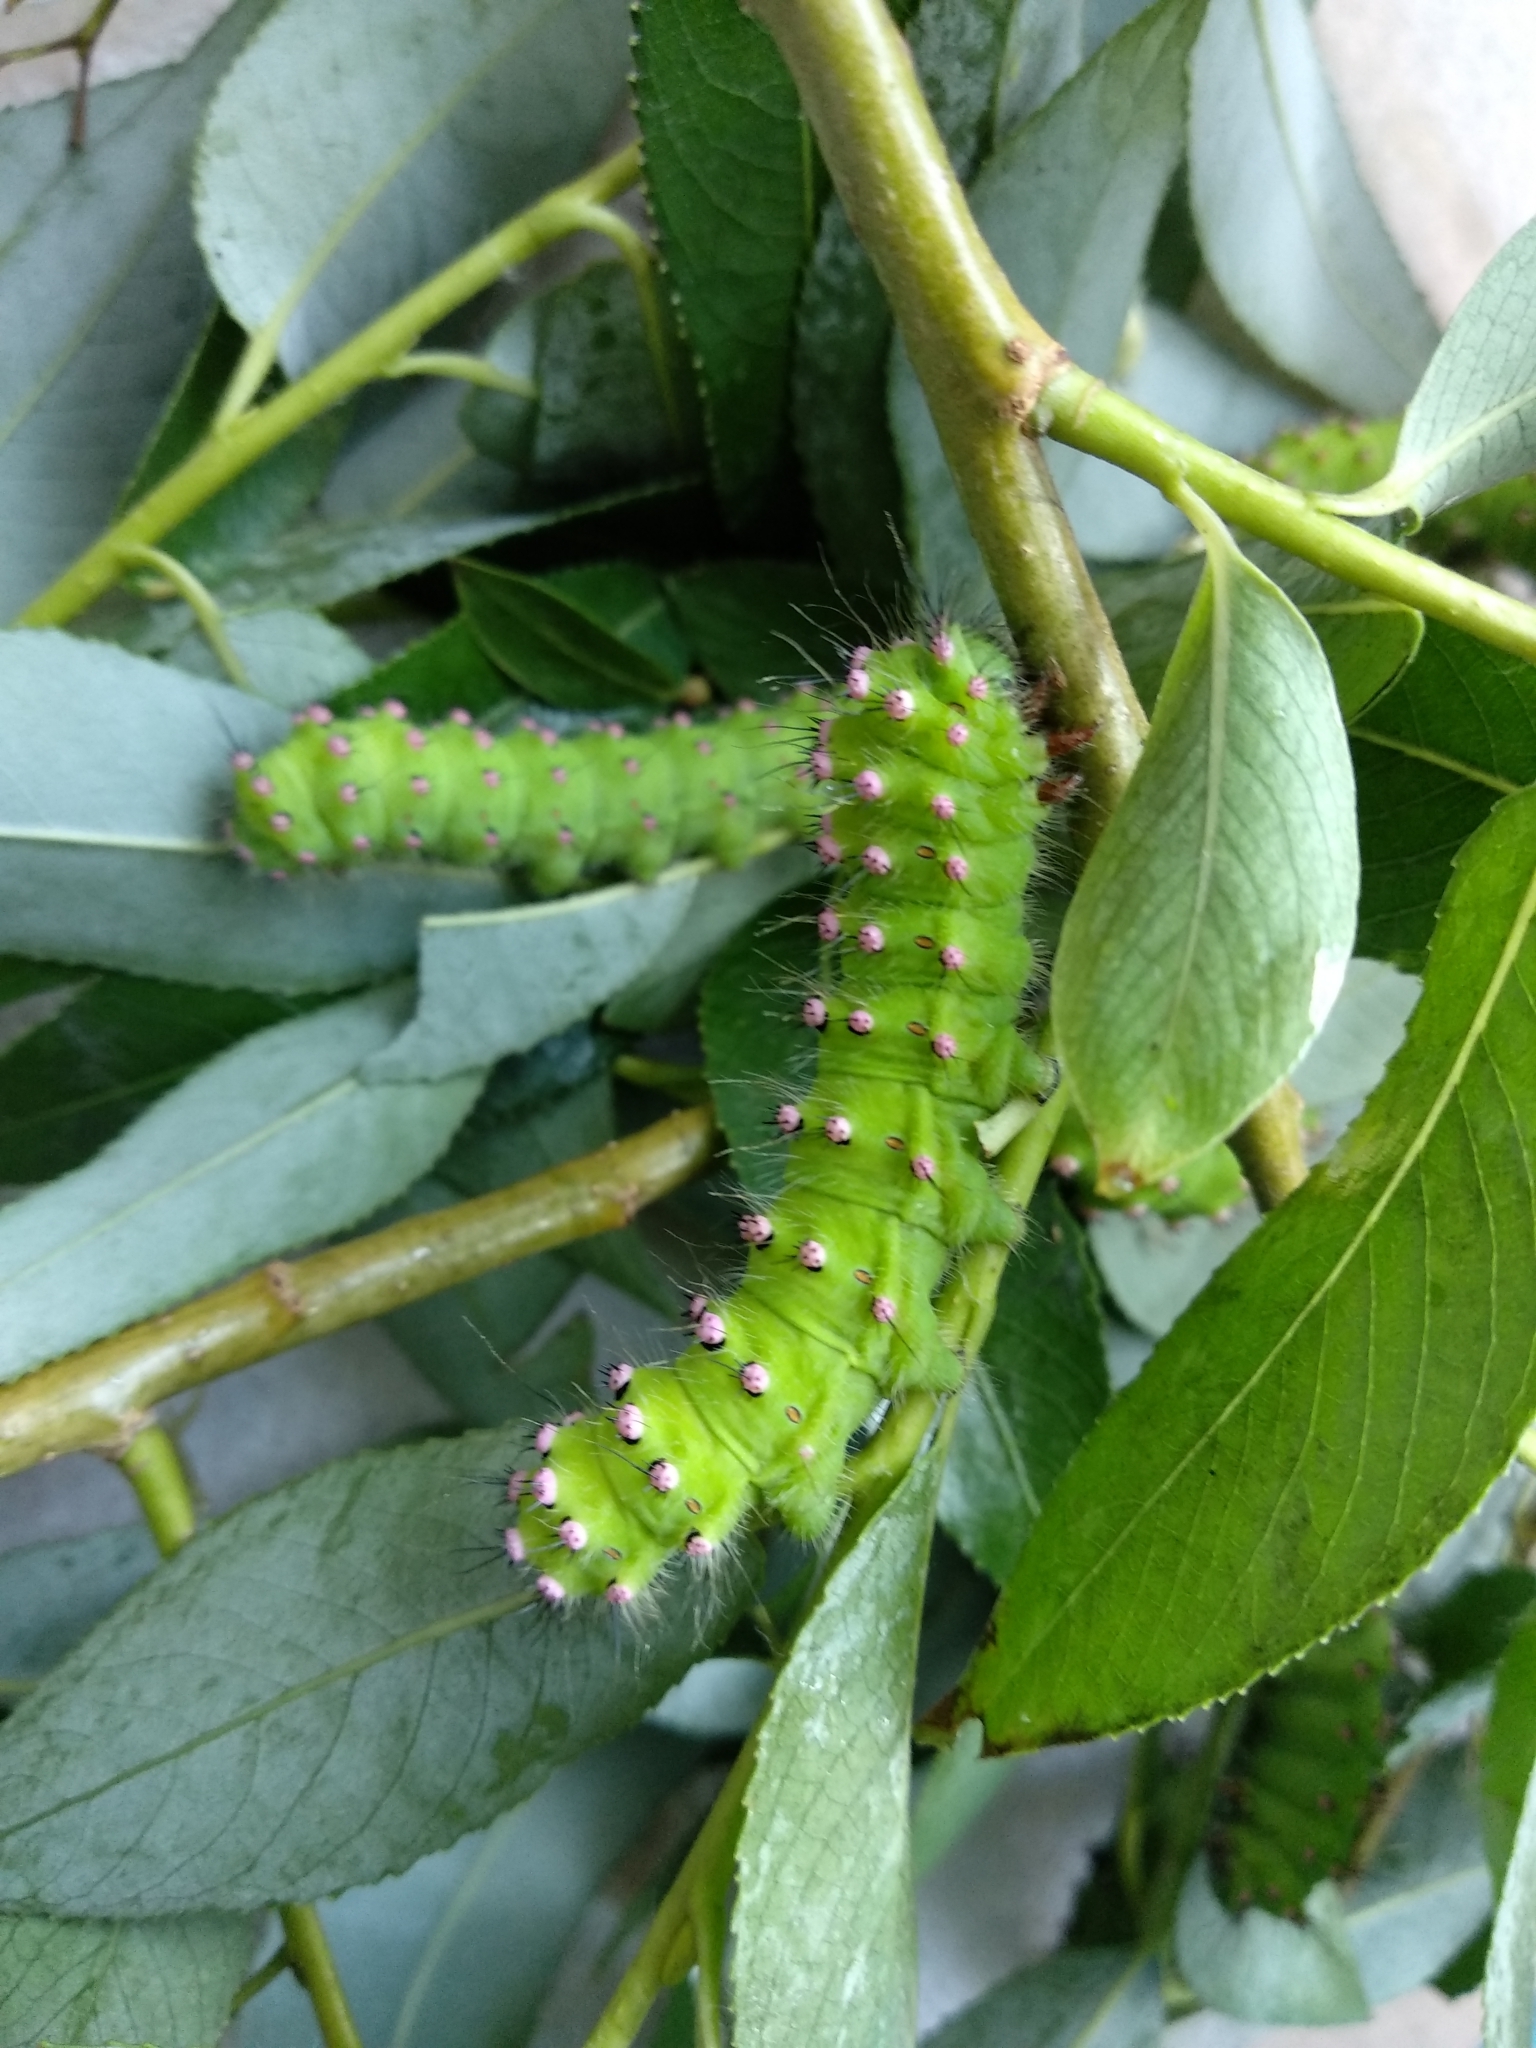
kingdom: Animalia
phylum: Arthropoda
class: Insecta
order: Lepidoptera
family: Saturniidae
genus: Saturnia
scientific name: Saturnia pavonia
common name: Emperor moth
